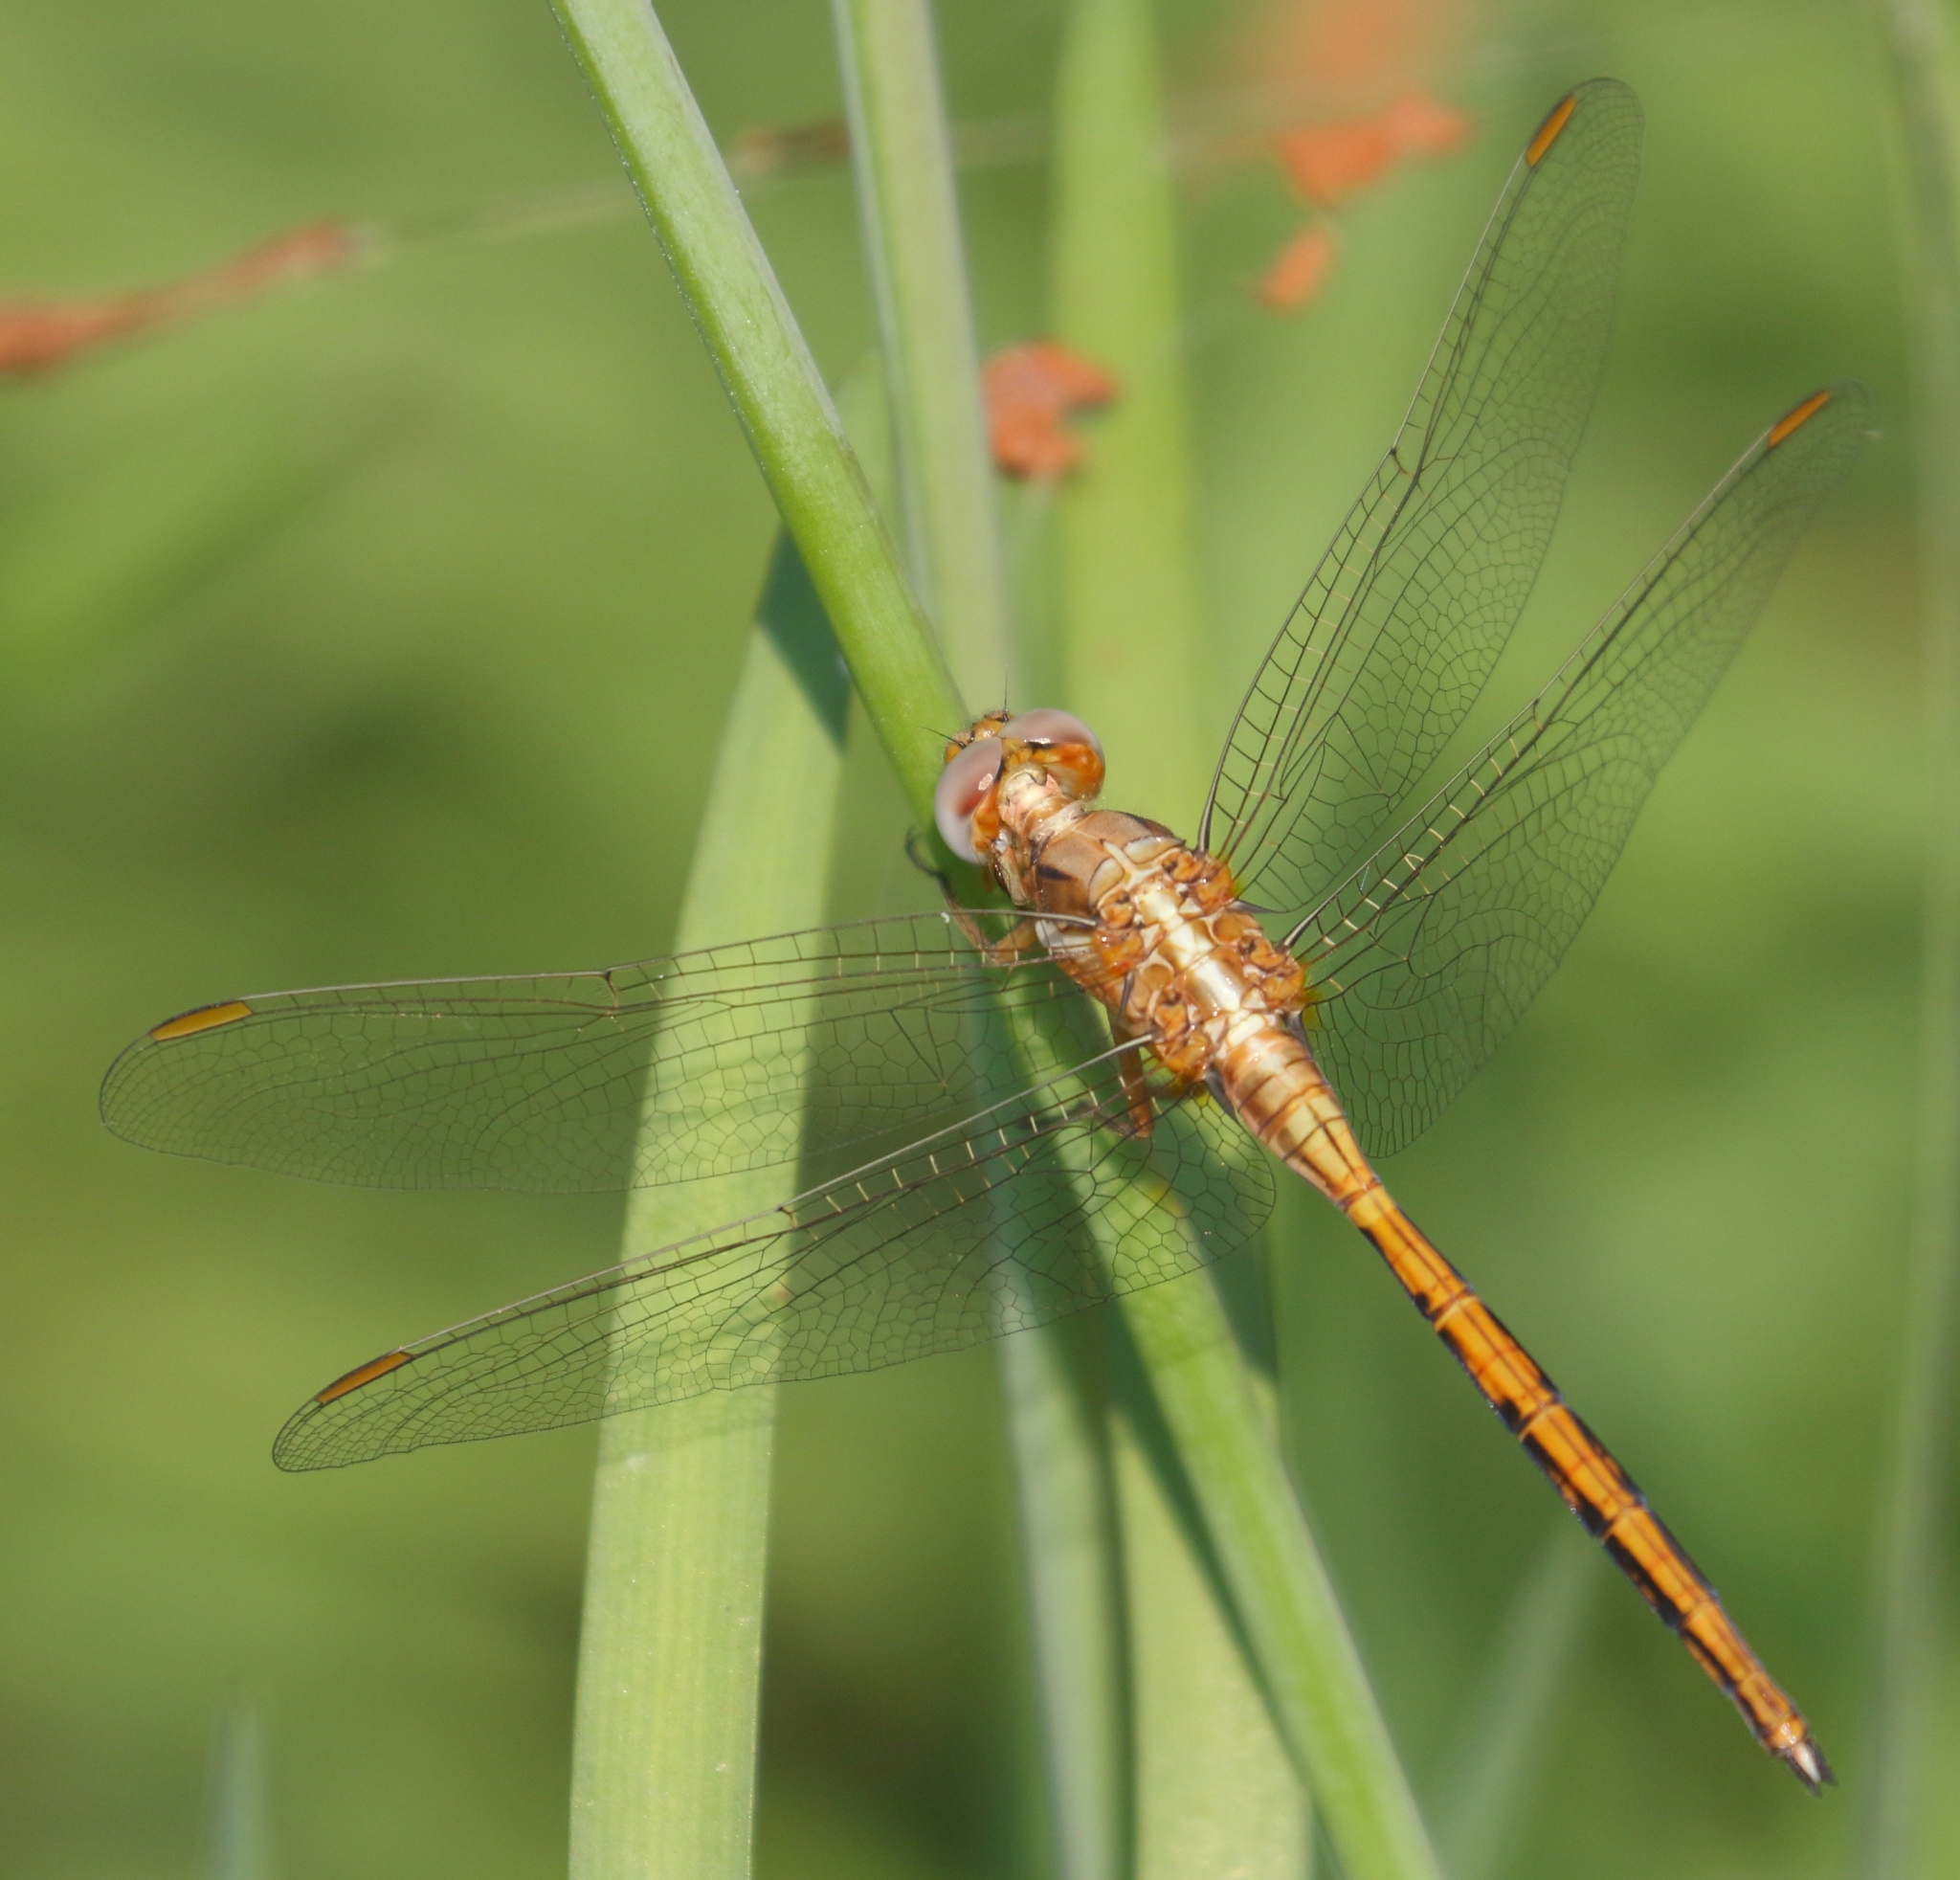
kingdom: Animalia
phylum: Arthropoda
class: Insecta
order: Odonata
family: Libellulidae
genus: Orthetrum
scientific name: Orthetrum chrysostigma
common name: Epaulet skimmer
